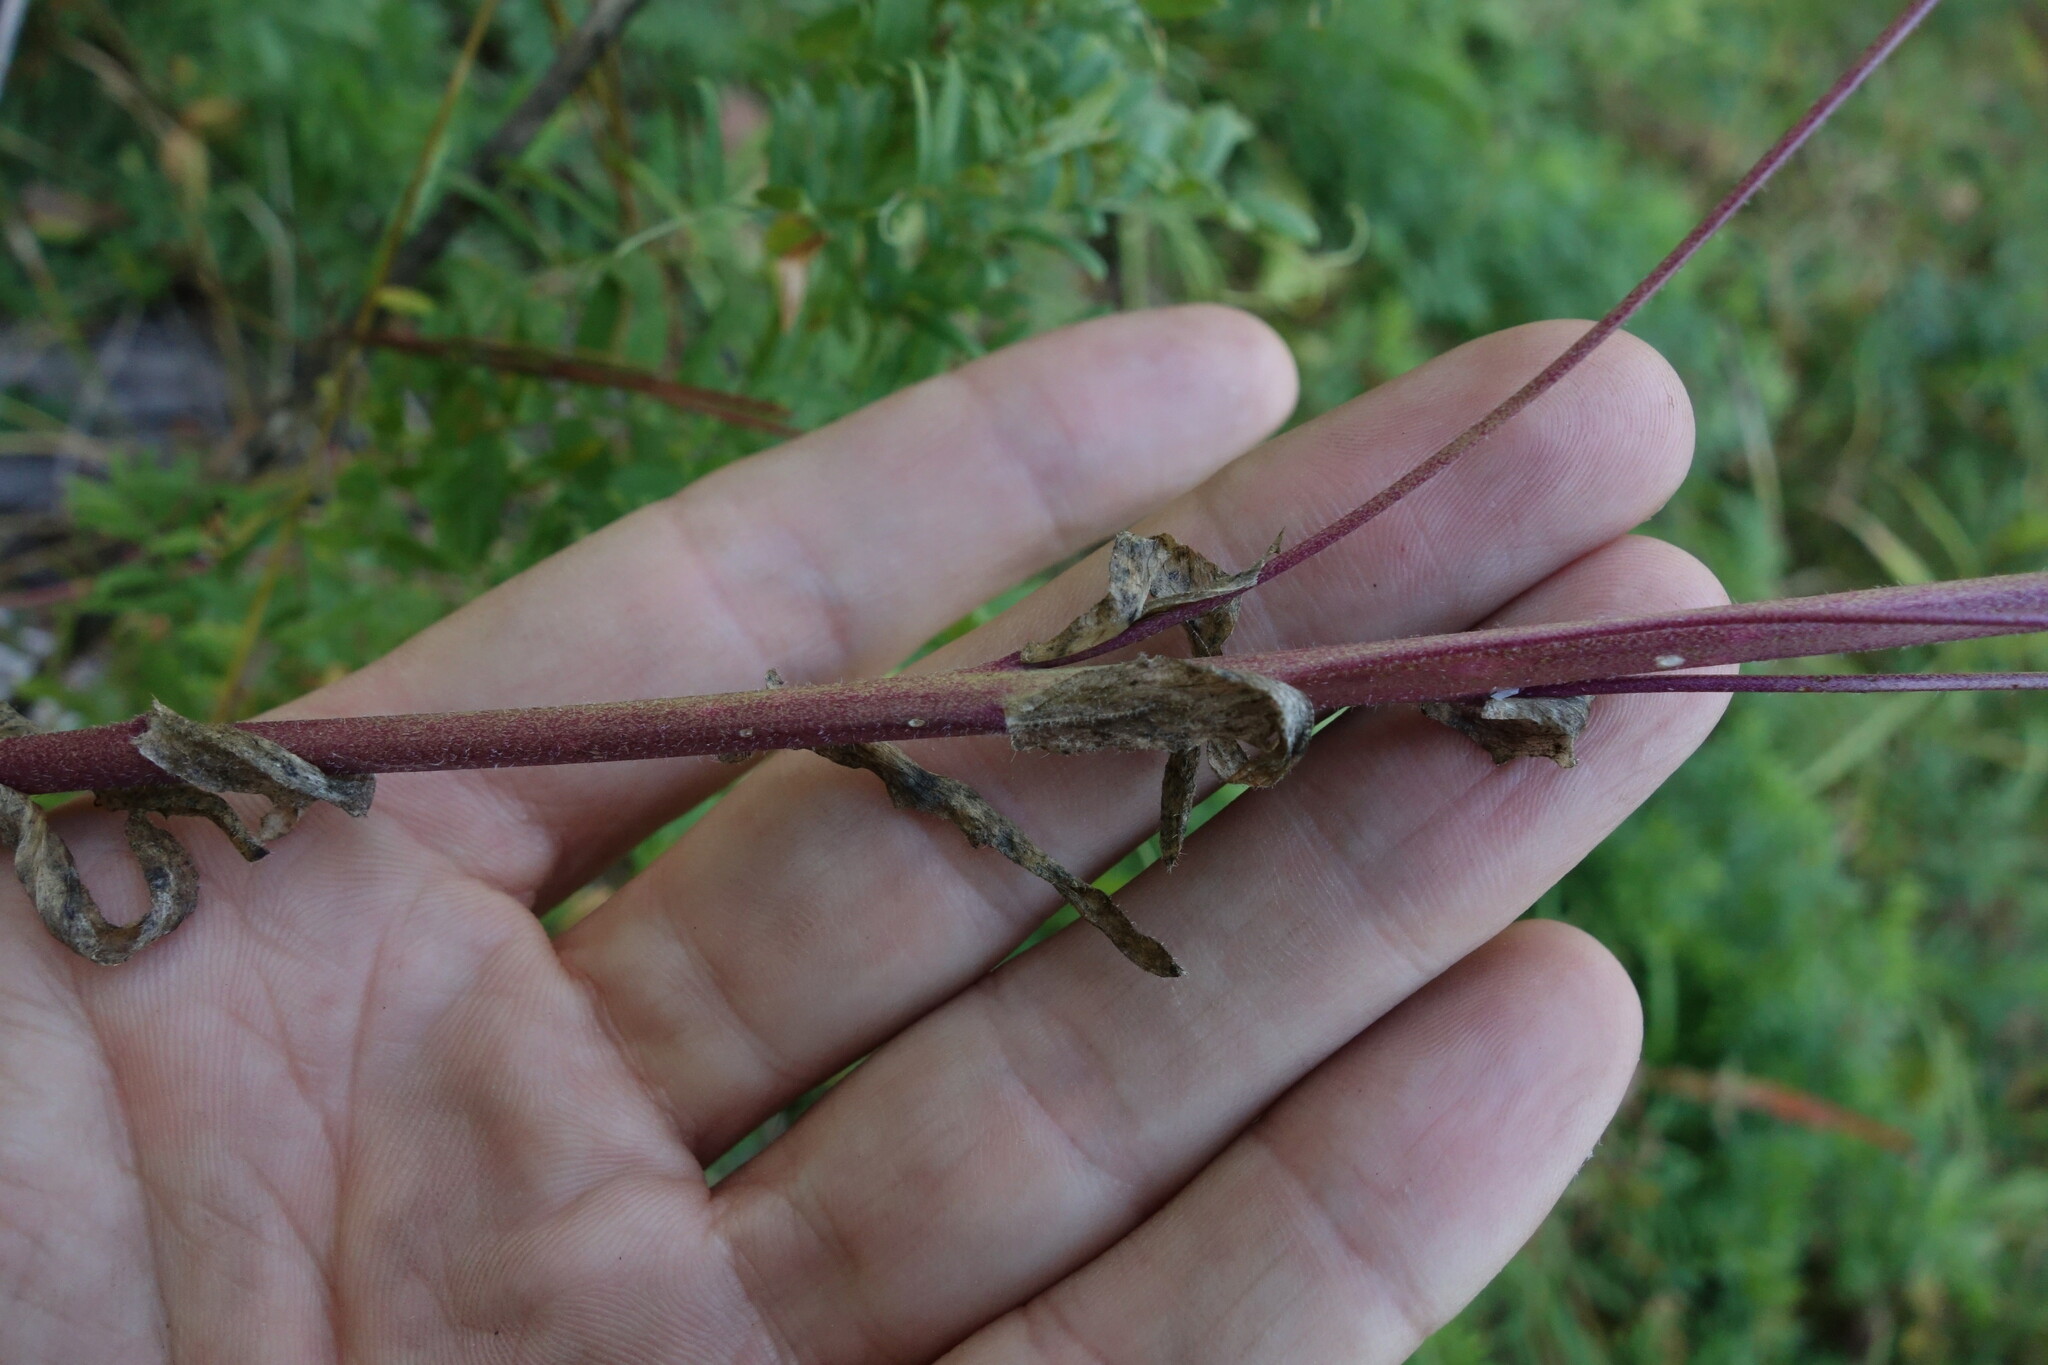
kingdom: Plantae
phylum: Tracheophyta
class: Magnoliopsida
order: Brassicales
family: Brassicaceae
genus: Arabis
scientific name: Arabis borealis
